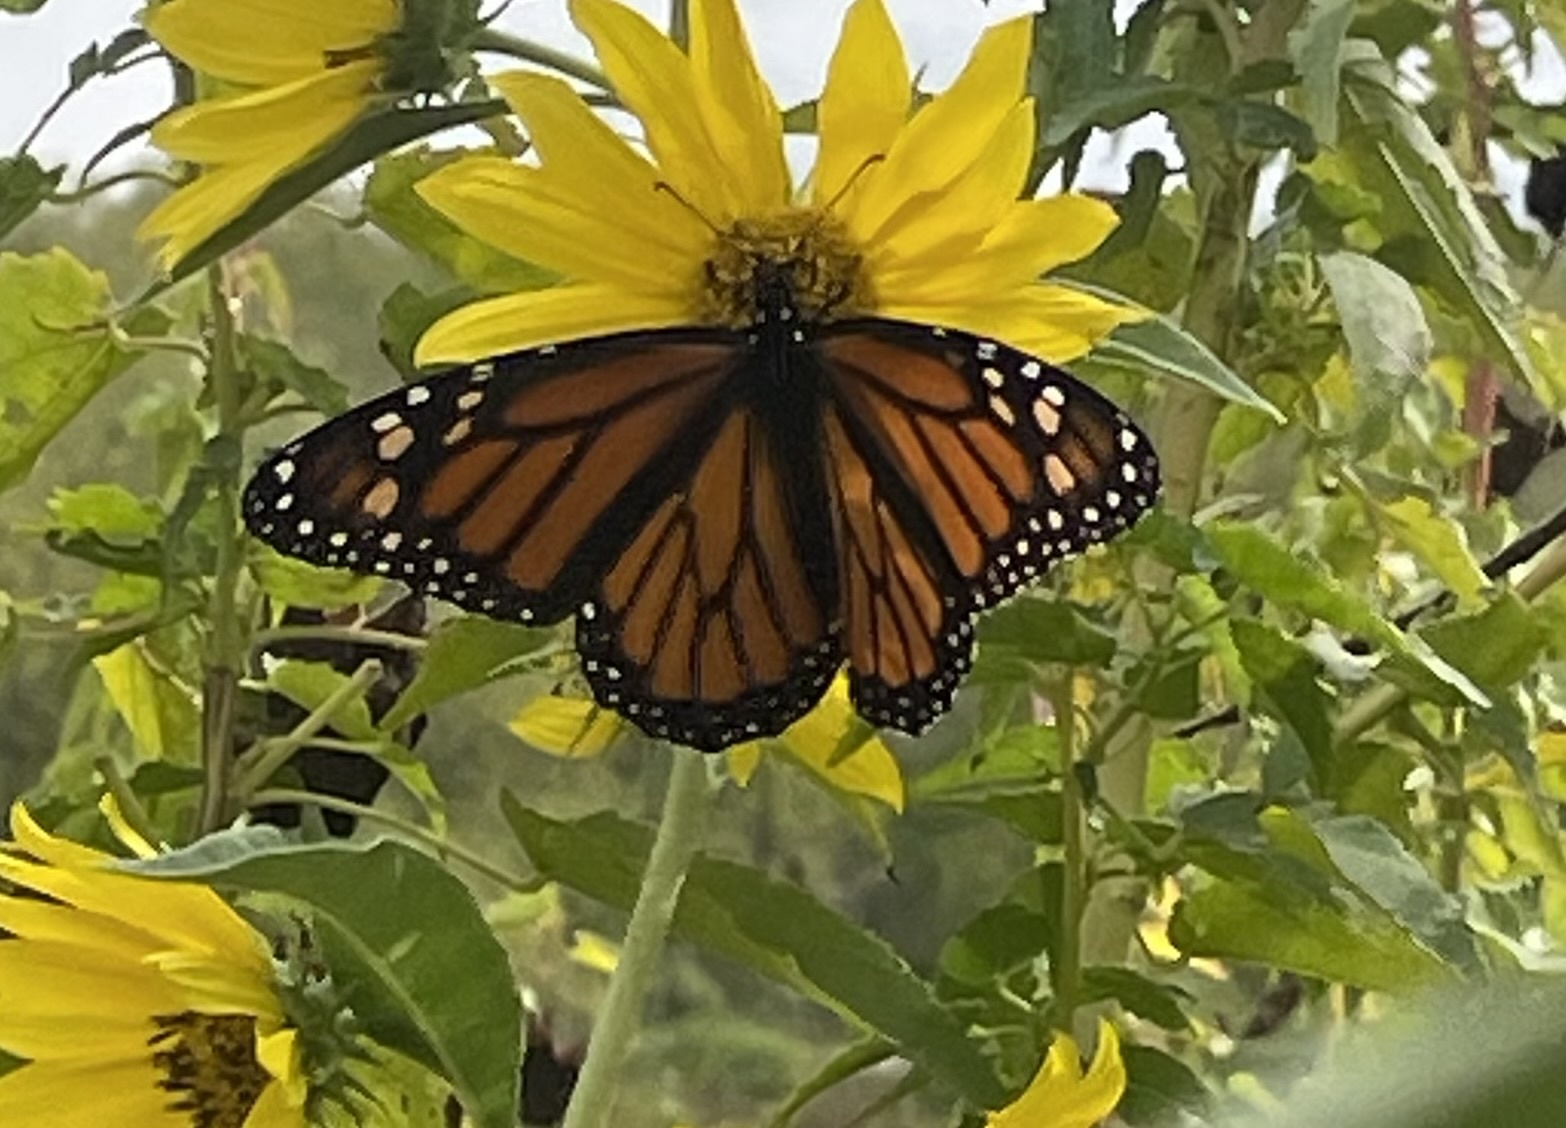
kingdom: Animalia
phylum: Arthropoda
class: Insecta
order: Lepidoptera
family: Nymphalidae
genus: Danaus
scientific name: Danaus plexippus
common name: Monarch
